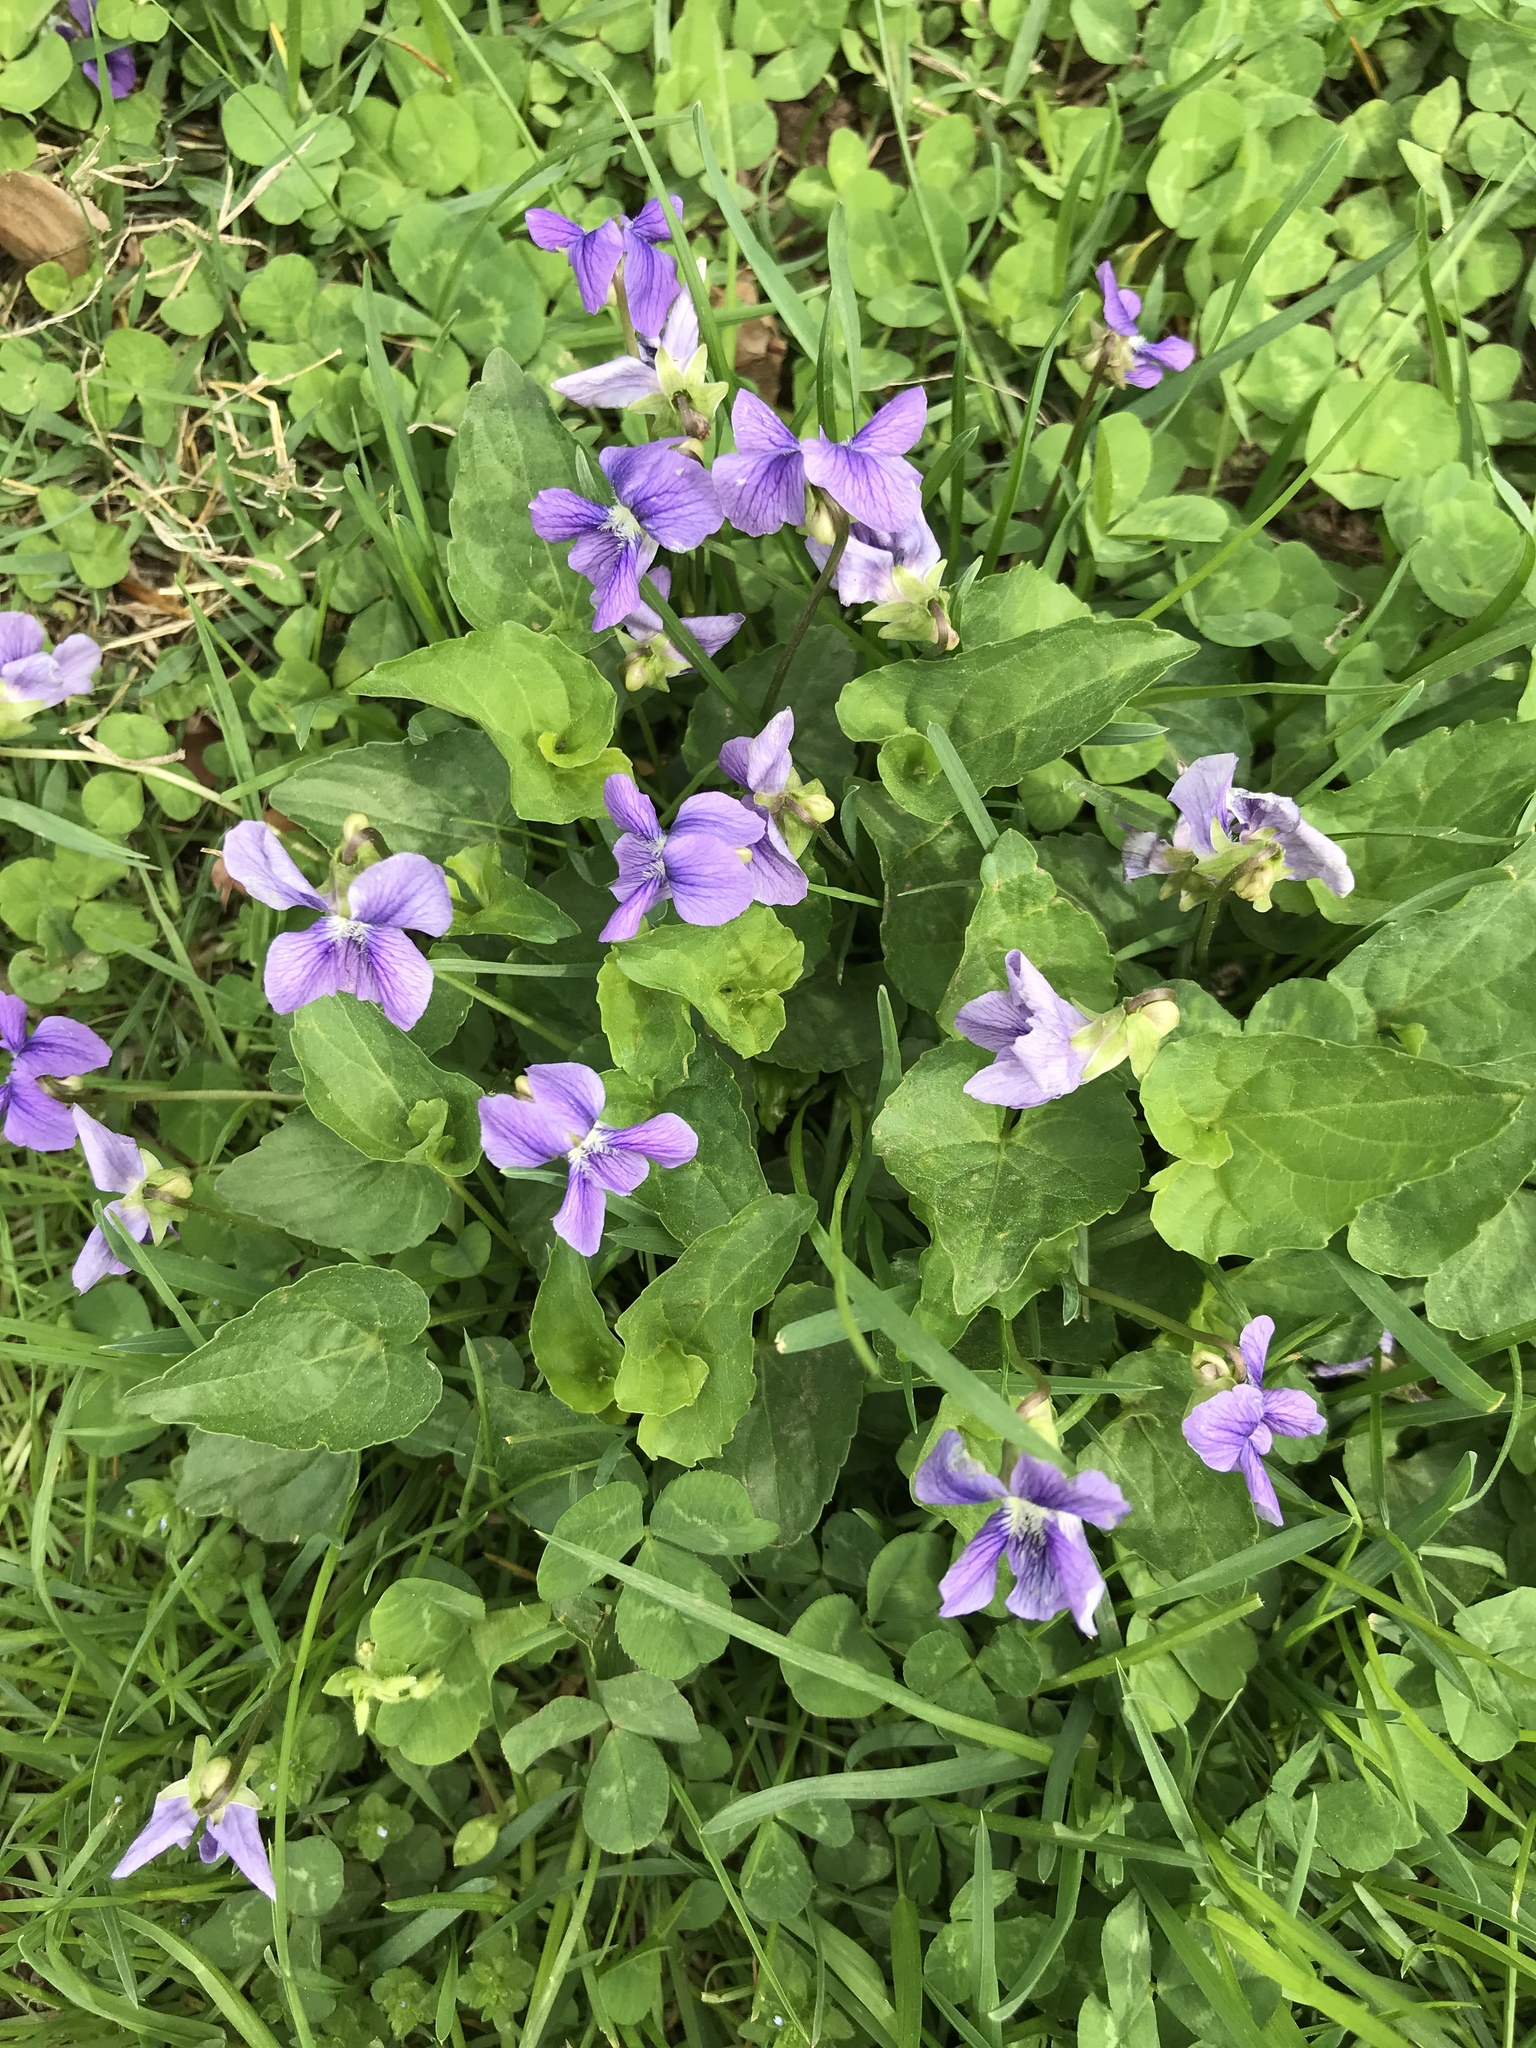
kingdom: Plantae
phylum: Tracheophyta
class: Magnoliopsida
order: Malpighiales
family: Violaceae
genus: Viola
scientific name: Viola sororia
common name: Dooryard violet
